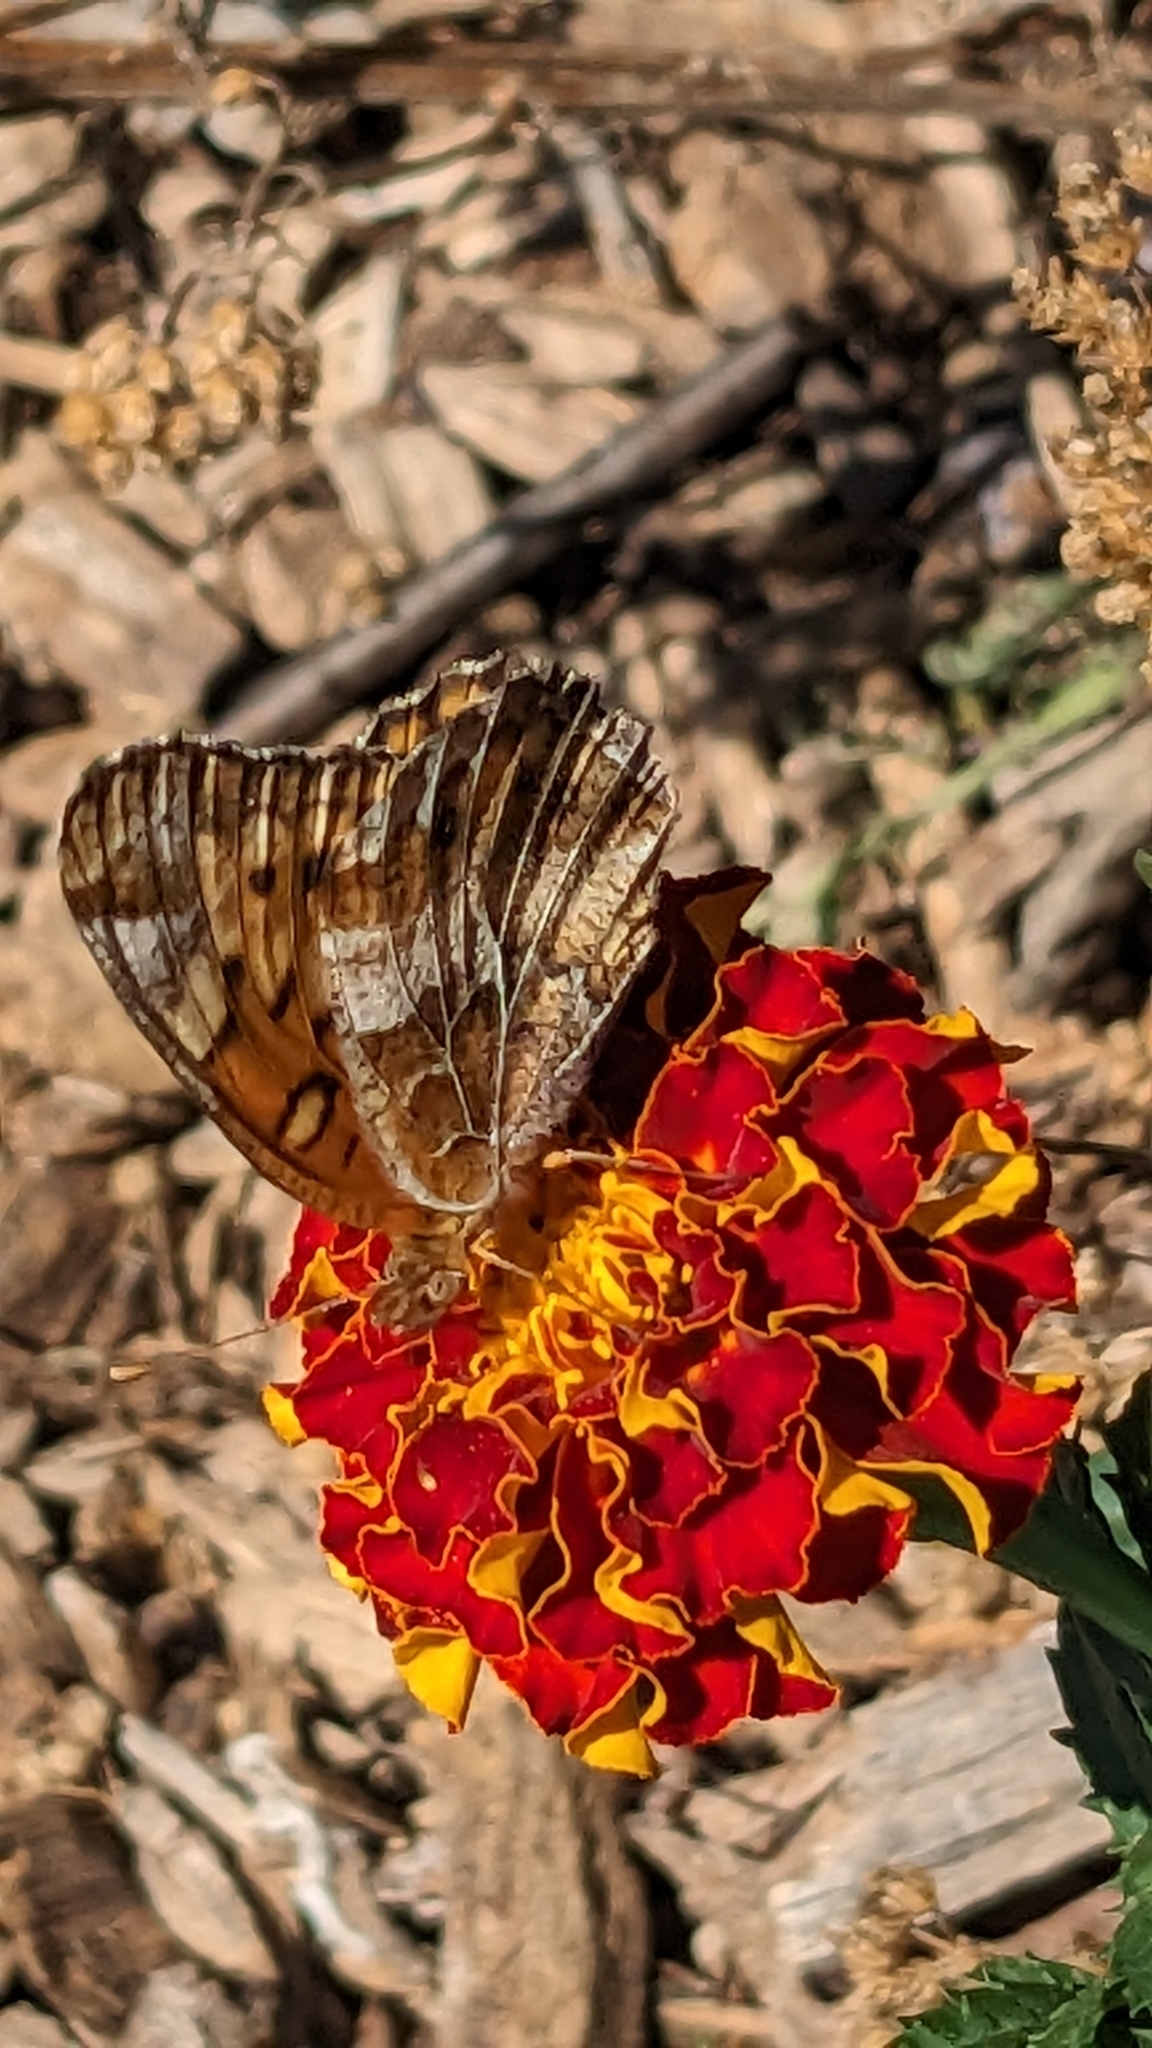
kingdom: Animalia
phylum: Arthropoda
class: Insecta
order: Lepidoptera
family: Nymphalidae
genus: Euptoieta
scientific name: Euptoieta claudia
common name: Variegated fritillary
